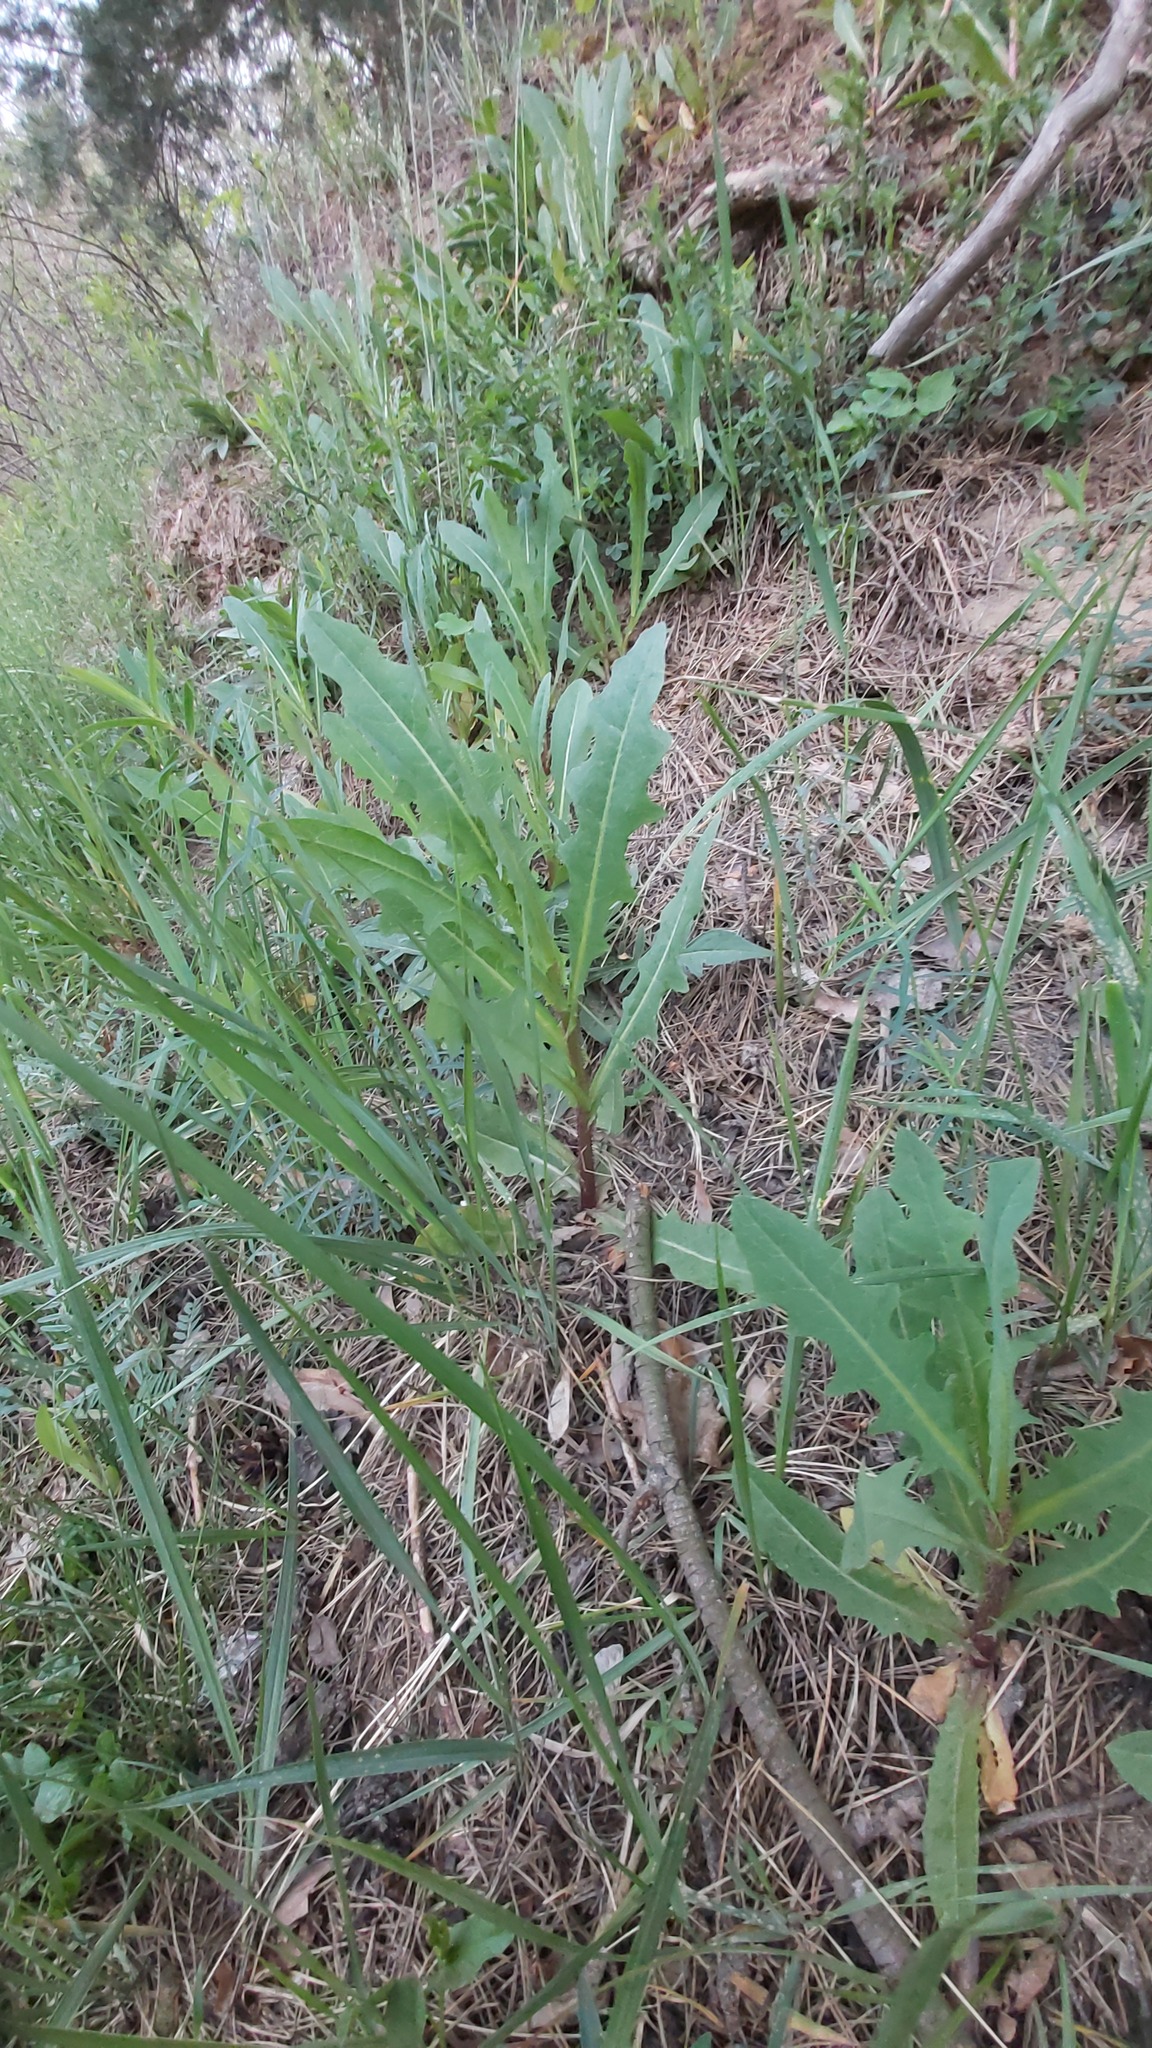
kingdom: Plantae
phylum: Tracheophyta
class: Magnoliopsida
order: Asterales
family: Asteraceae
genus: Lactuca
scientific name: Lactuca serriola
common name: Prickly lettuce
